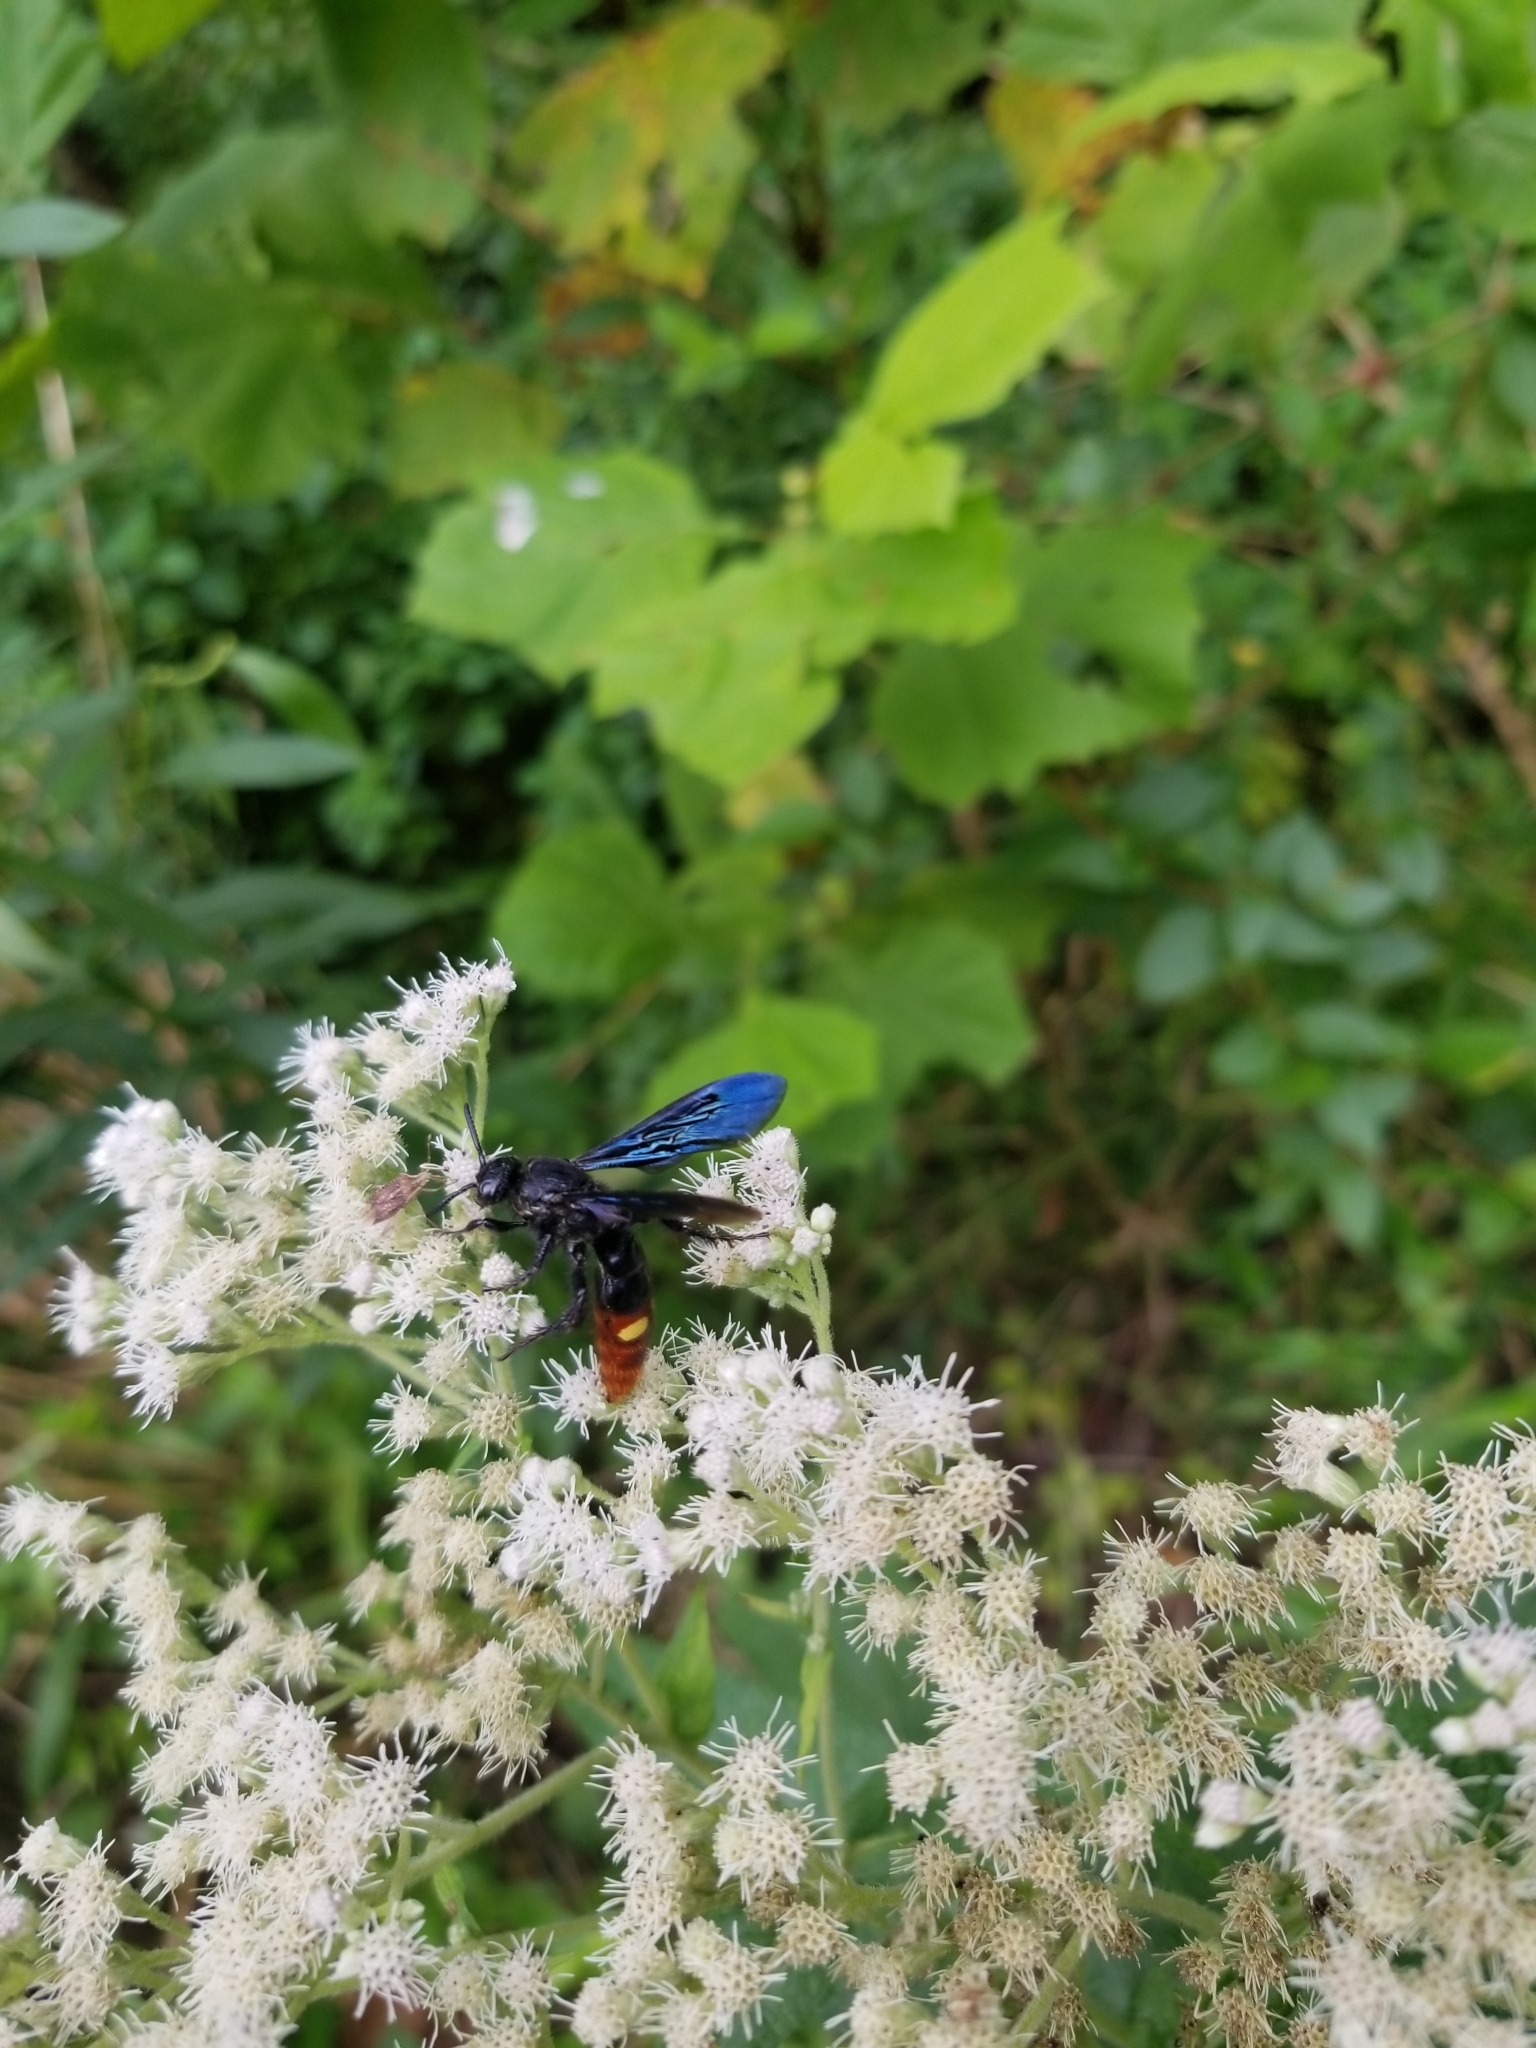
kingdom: Animalia
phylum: Arthropoda
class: Insecta
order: Hymenoptera
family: Scoliidae
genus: Scolia
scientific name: Scolia dubia
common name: Blue-winged scoliid wasp
